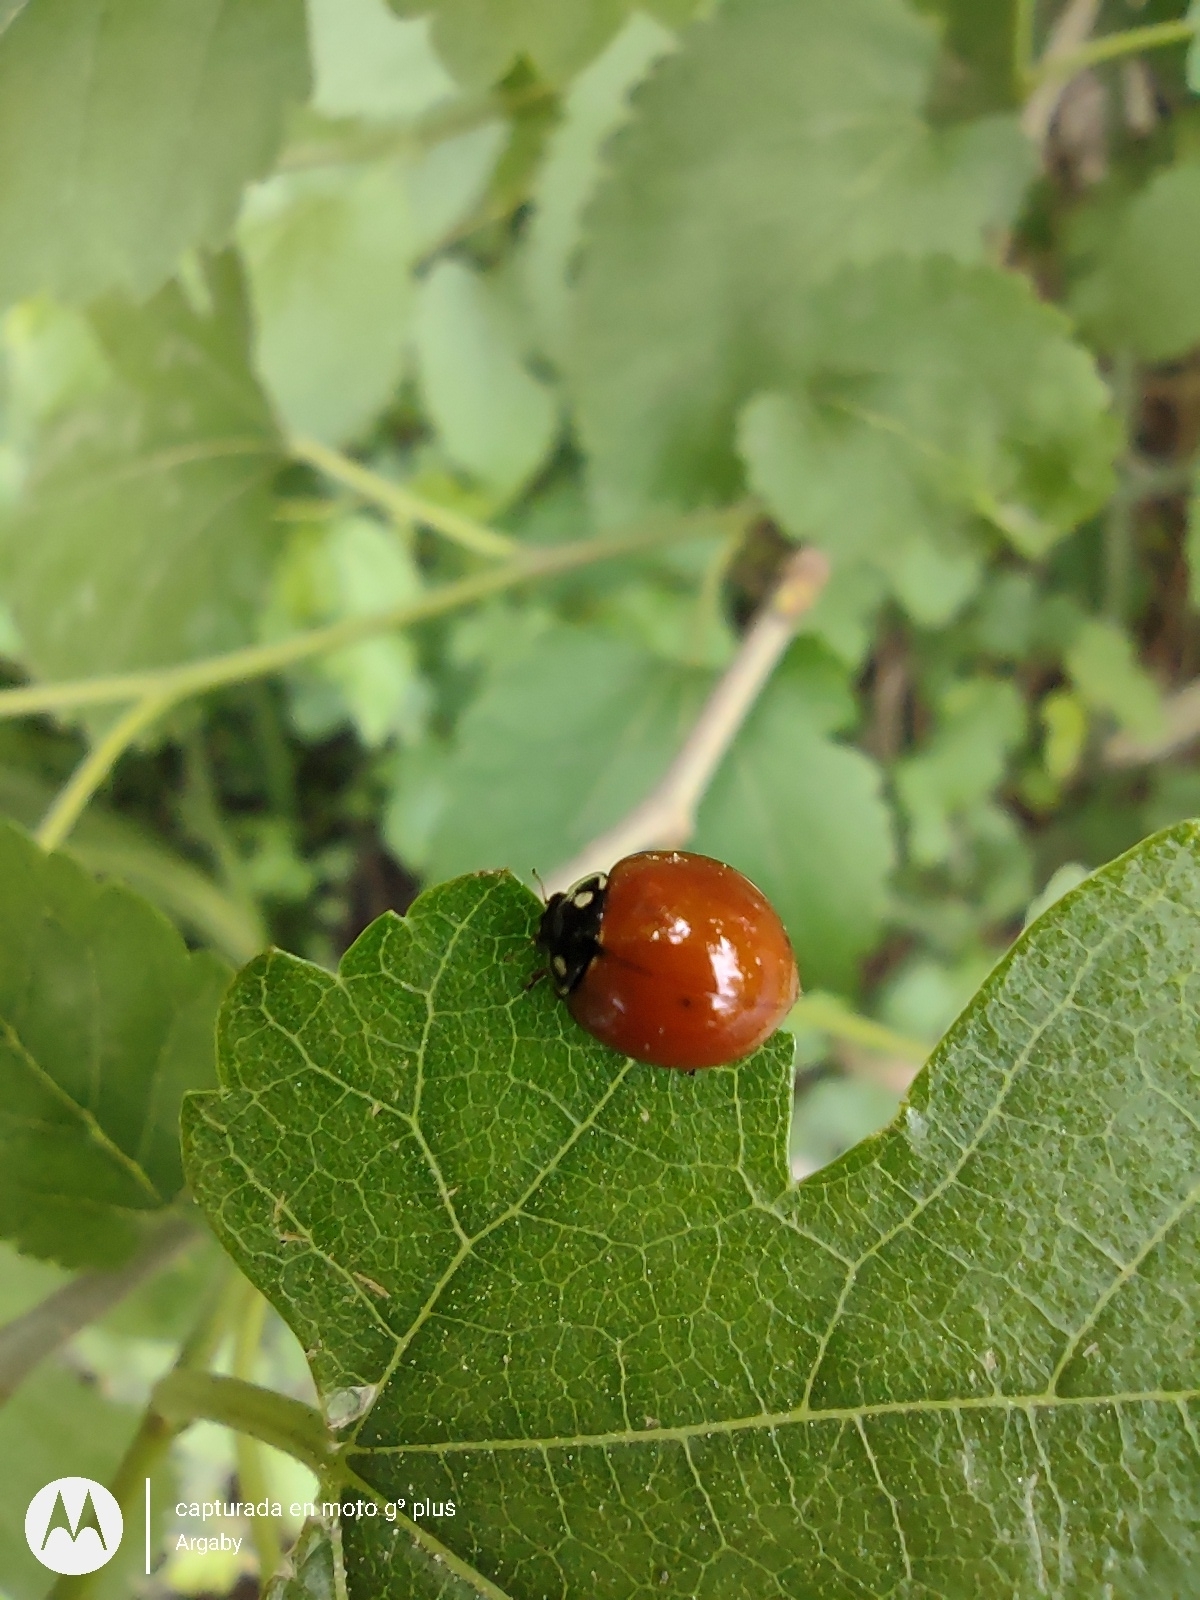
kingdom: Animalia
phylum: Arthropoda
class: Insecta
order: Coleoptera
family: Coccinellidae
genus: Cycloneda
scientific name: Cycloneda sanguinea
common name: Ladybird beetle
